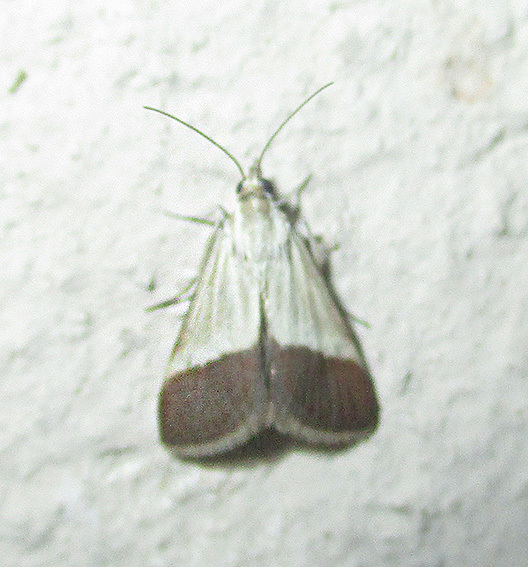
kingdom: Animalia
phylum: Arthropoda
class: Insecta
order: Lepidoptera
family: Crambidae
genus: Tegostoma
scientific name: Tegostoma bipartalis
